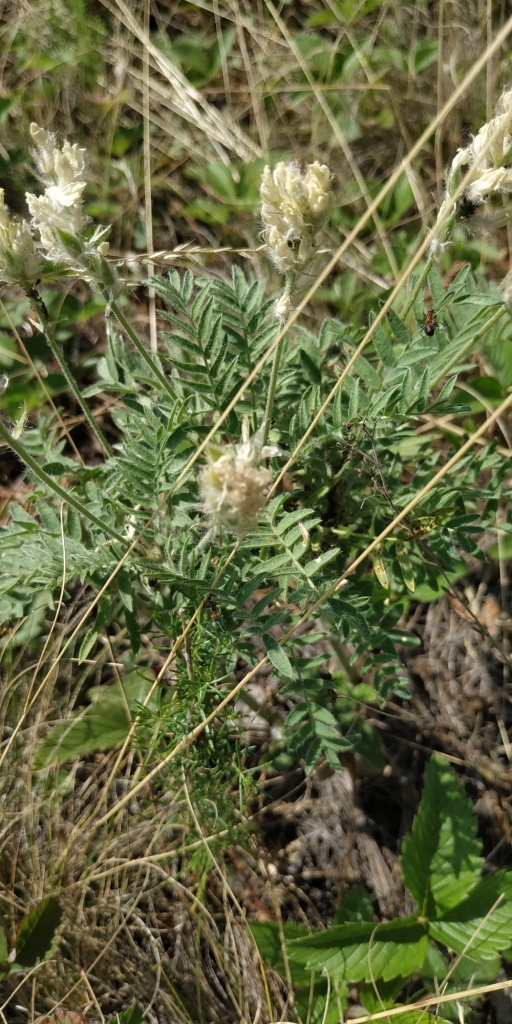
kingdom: Plantae
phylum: Tracheophyta
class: Magnoliopsida
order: Fabales
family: Fabaceae
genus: Oxytropis
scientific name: Oxytropis pilosa
